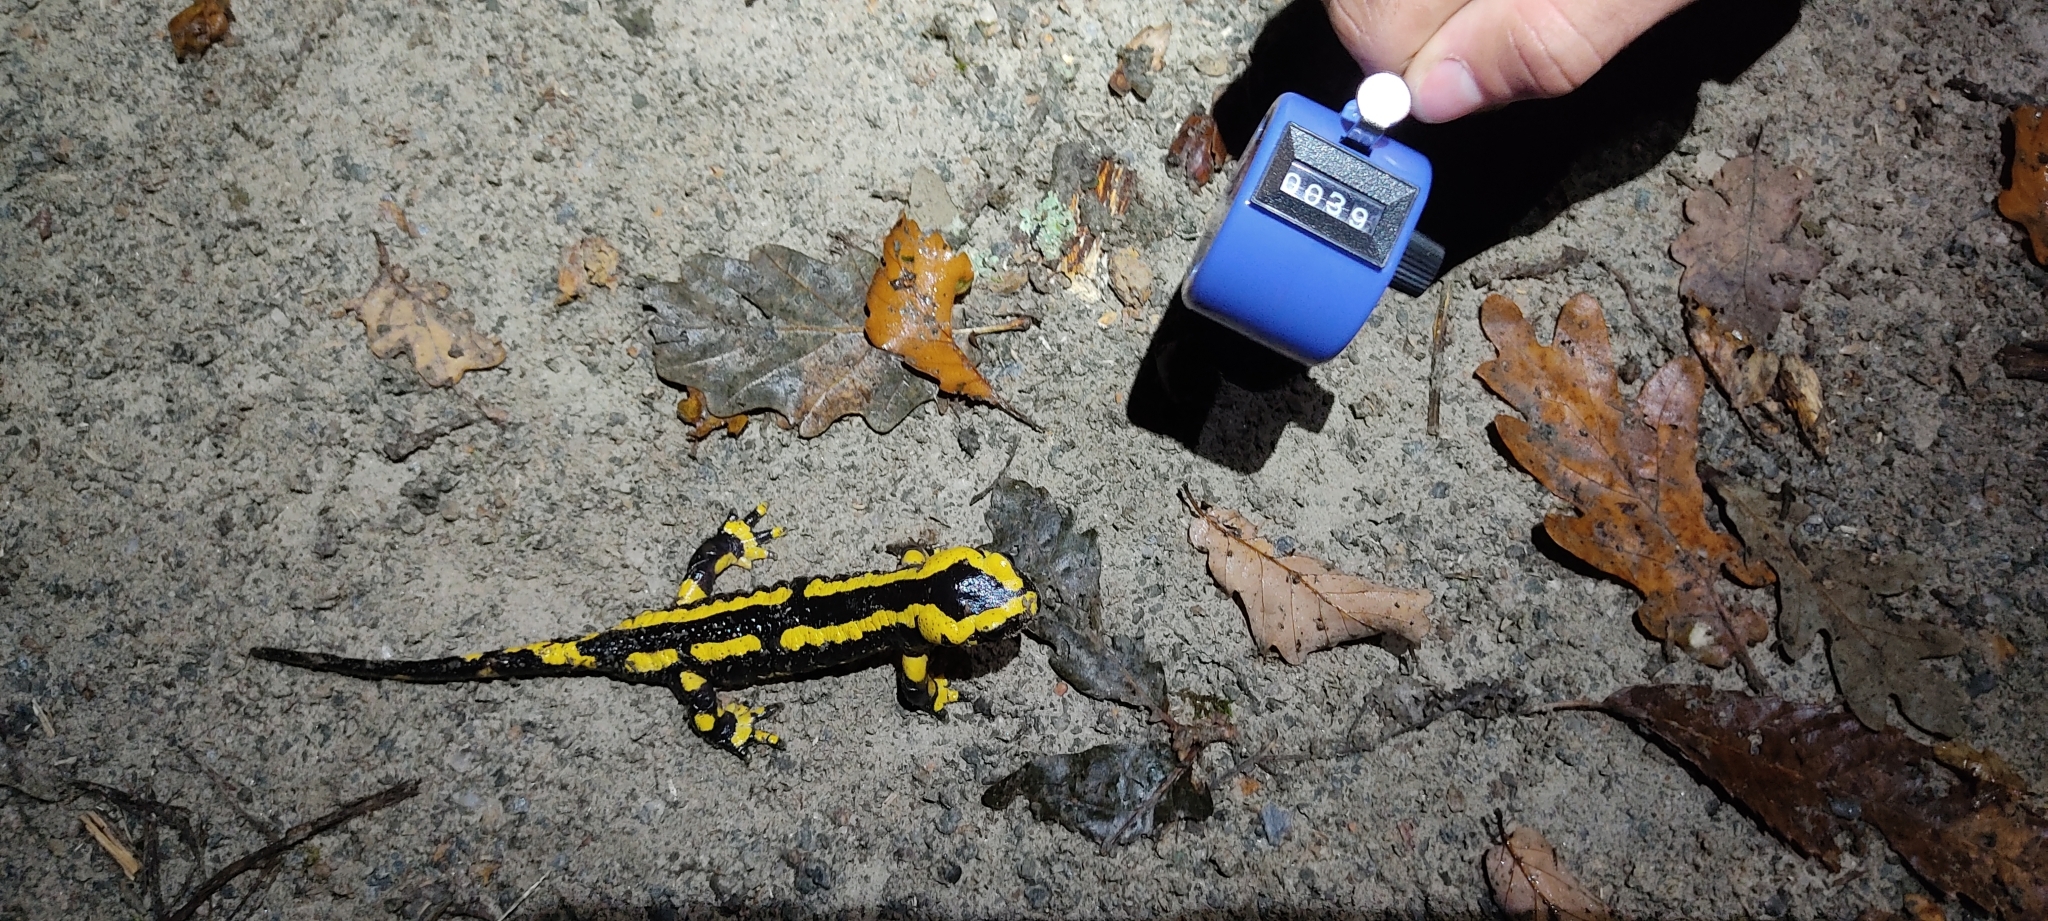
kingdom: Animalia
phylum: Chordata
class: Amphibia
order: Caudata
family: Salamandridae
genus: Salamandra
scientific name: Salamandra salamandra
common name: Fire salamander
